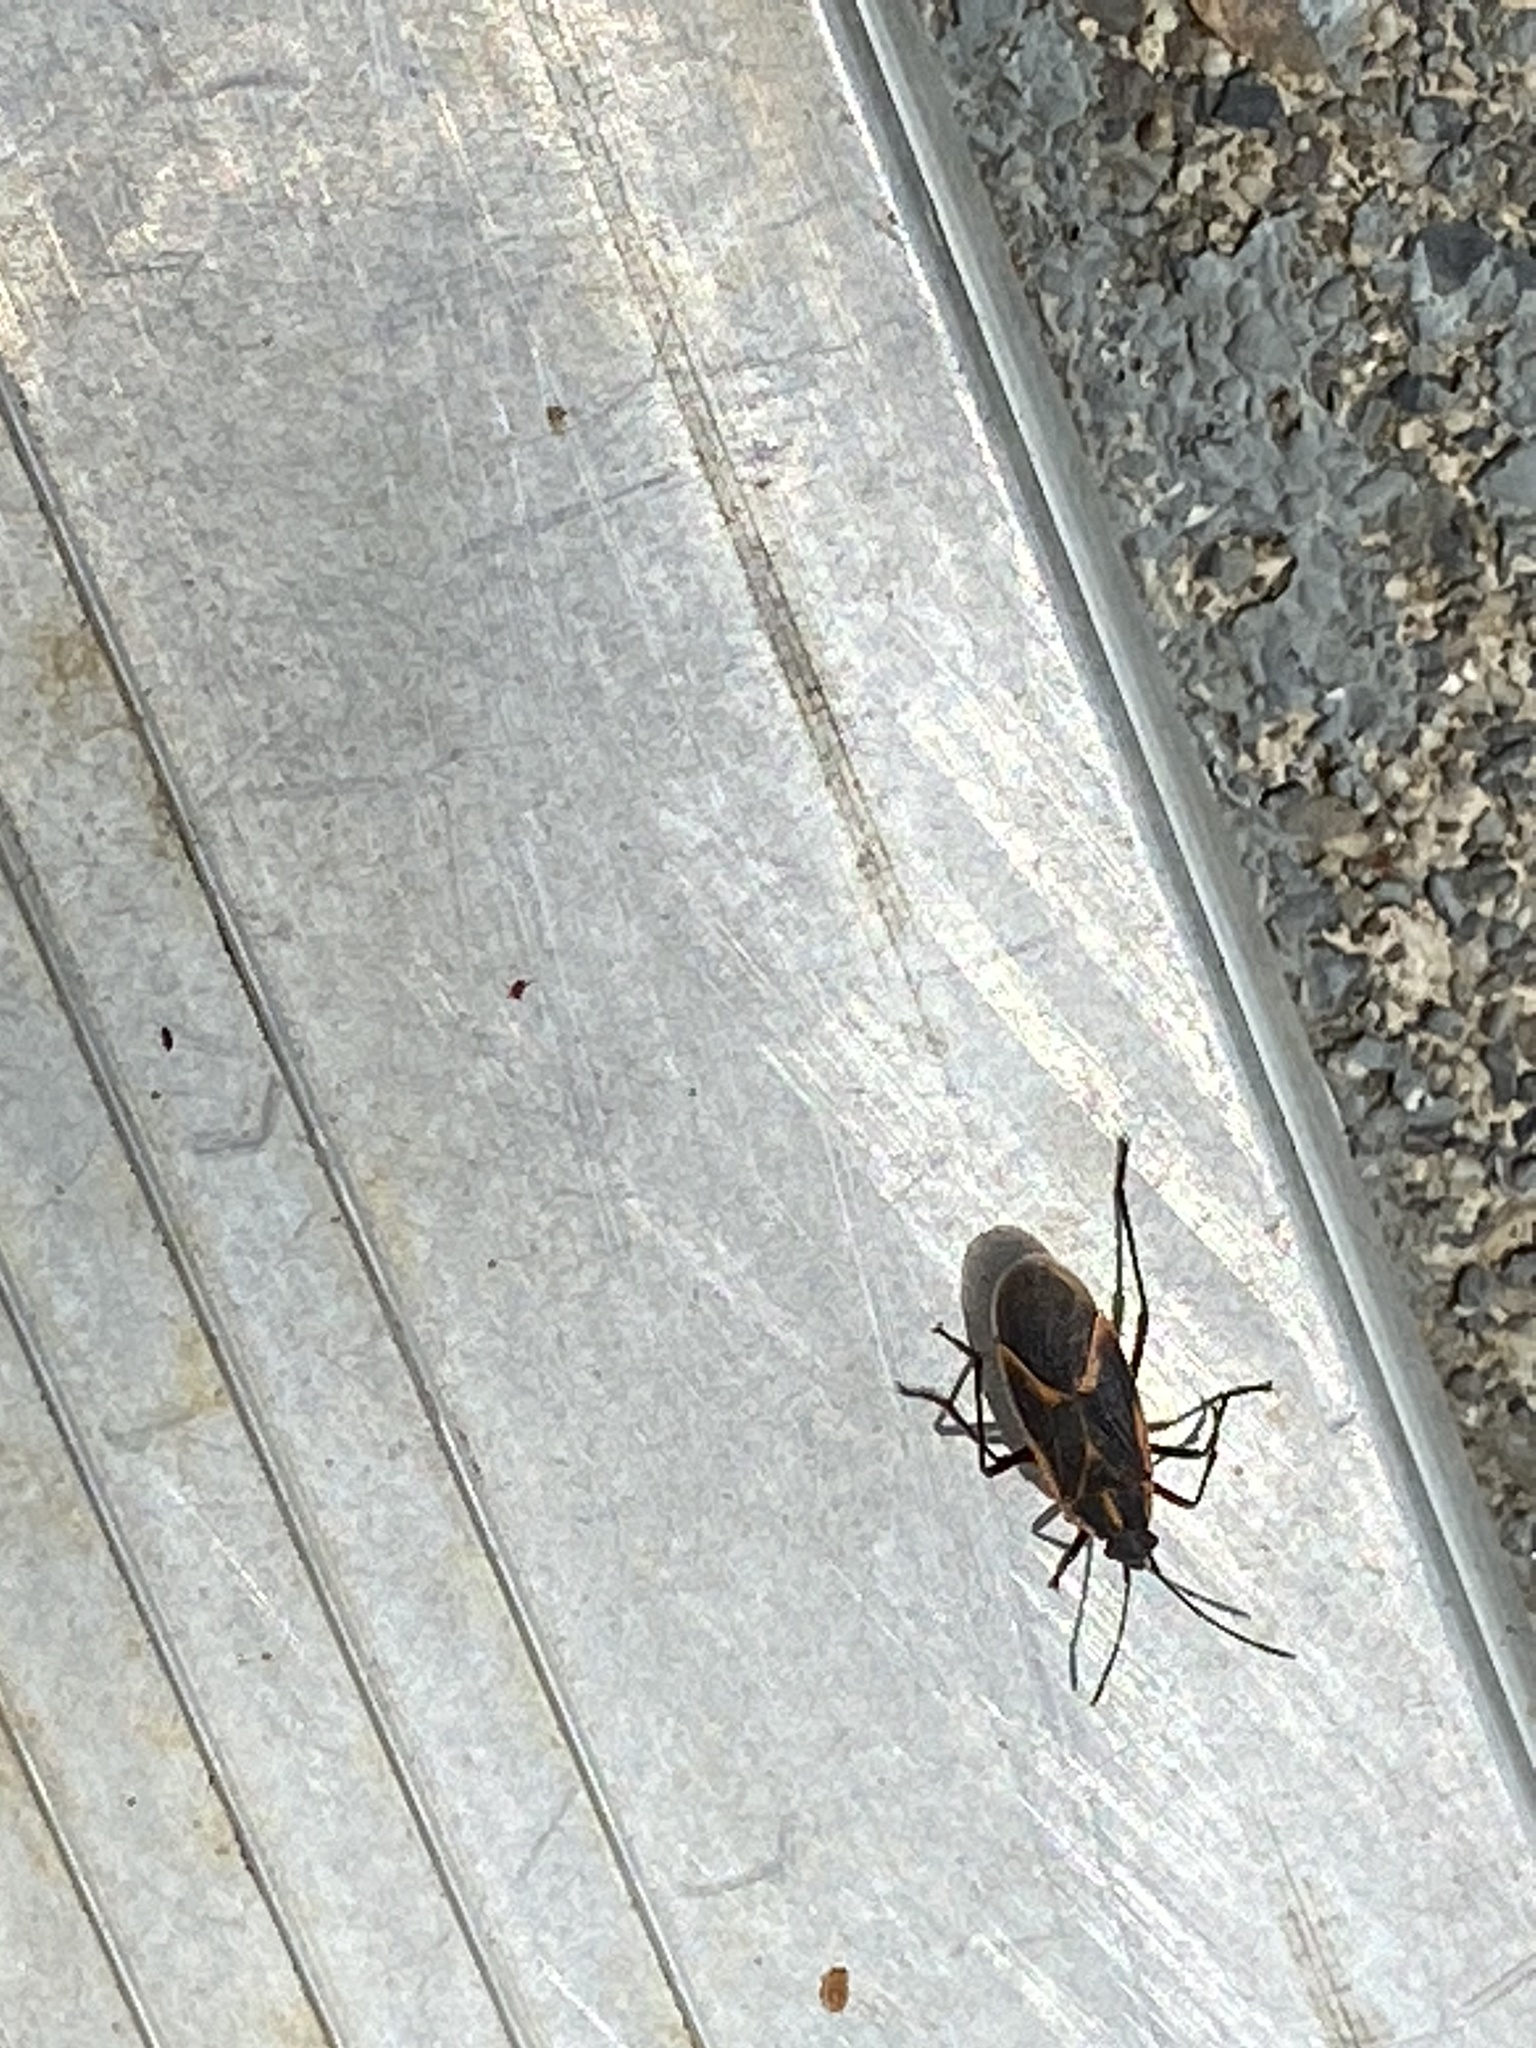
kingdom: Animalia
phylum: Arthropoda
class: Insecta
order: Hemiptera
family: Rhopalidae
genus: Boisea
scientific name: Boisea trivittata
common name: Boxelder bug
